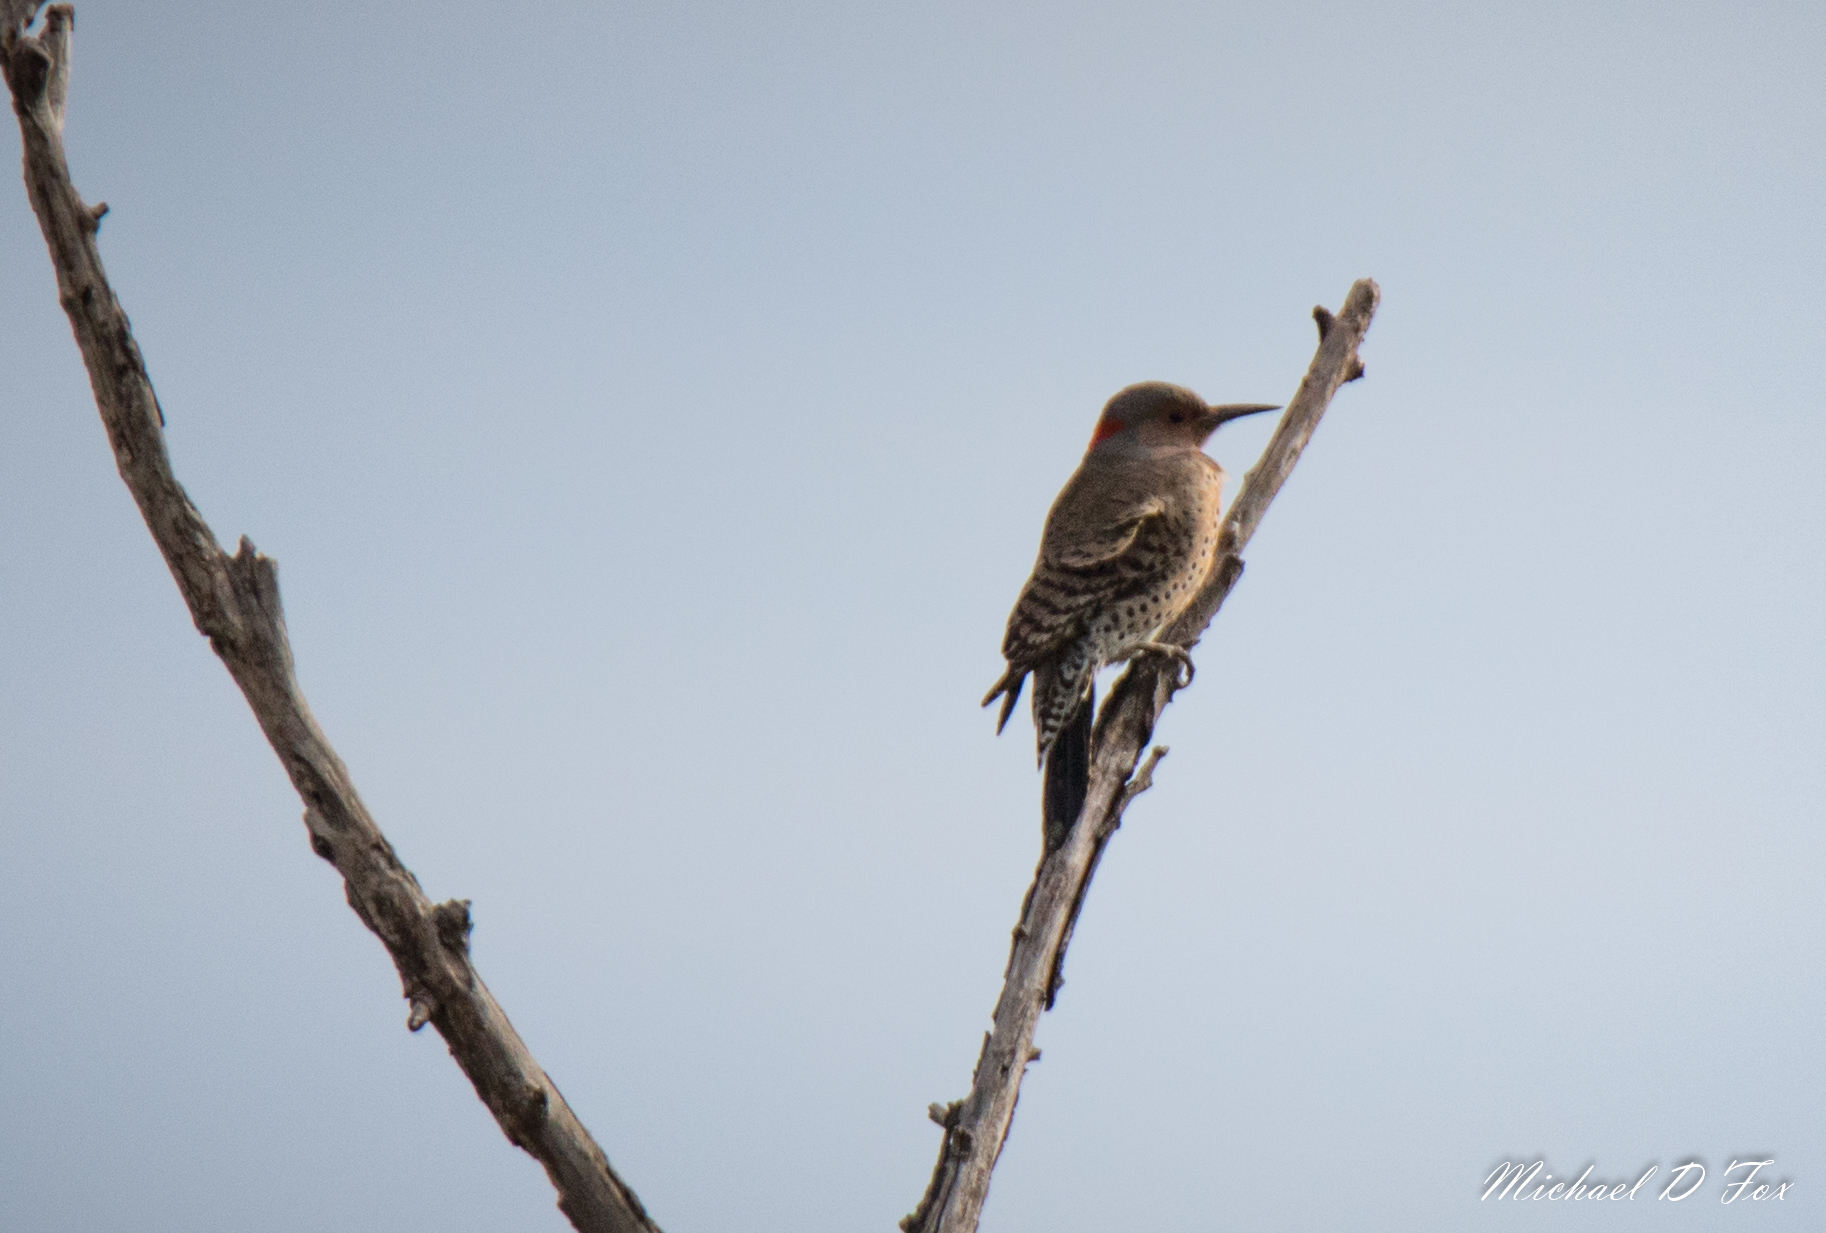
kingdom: Animalia
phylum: Chordata
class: Aves
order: Piciformes
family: Picidae
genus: Colaptes
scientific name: Colaptes auratus
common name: Northern flicker
